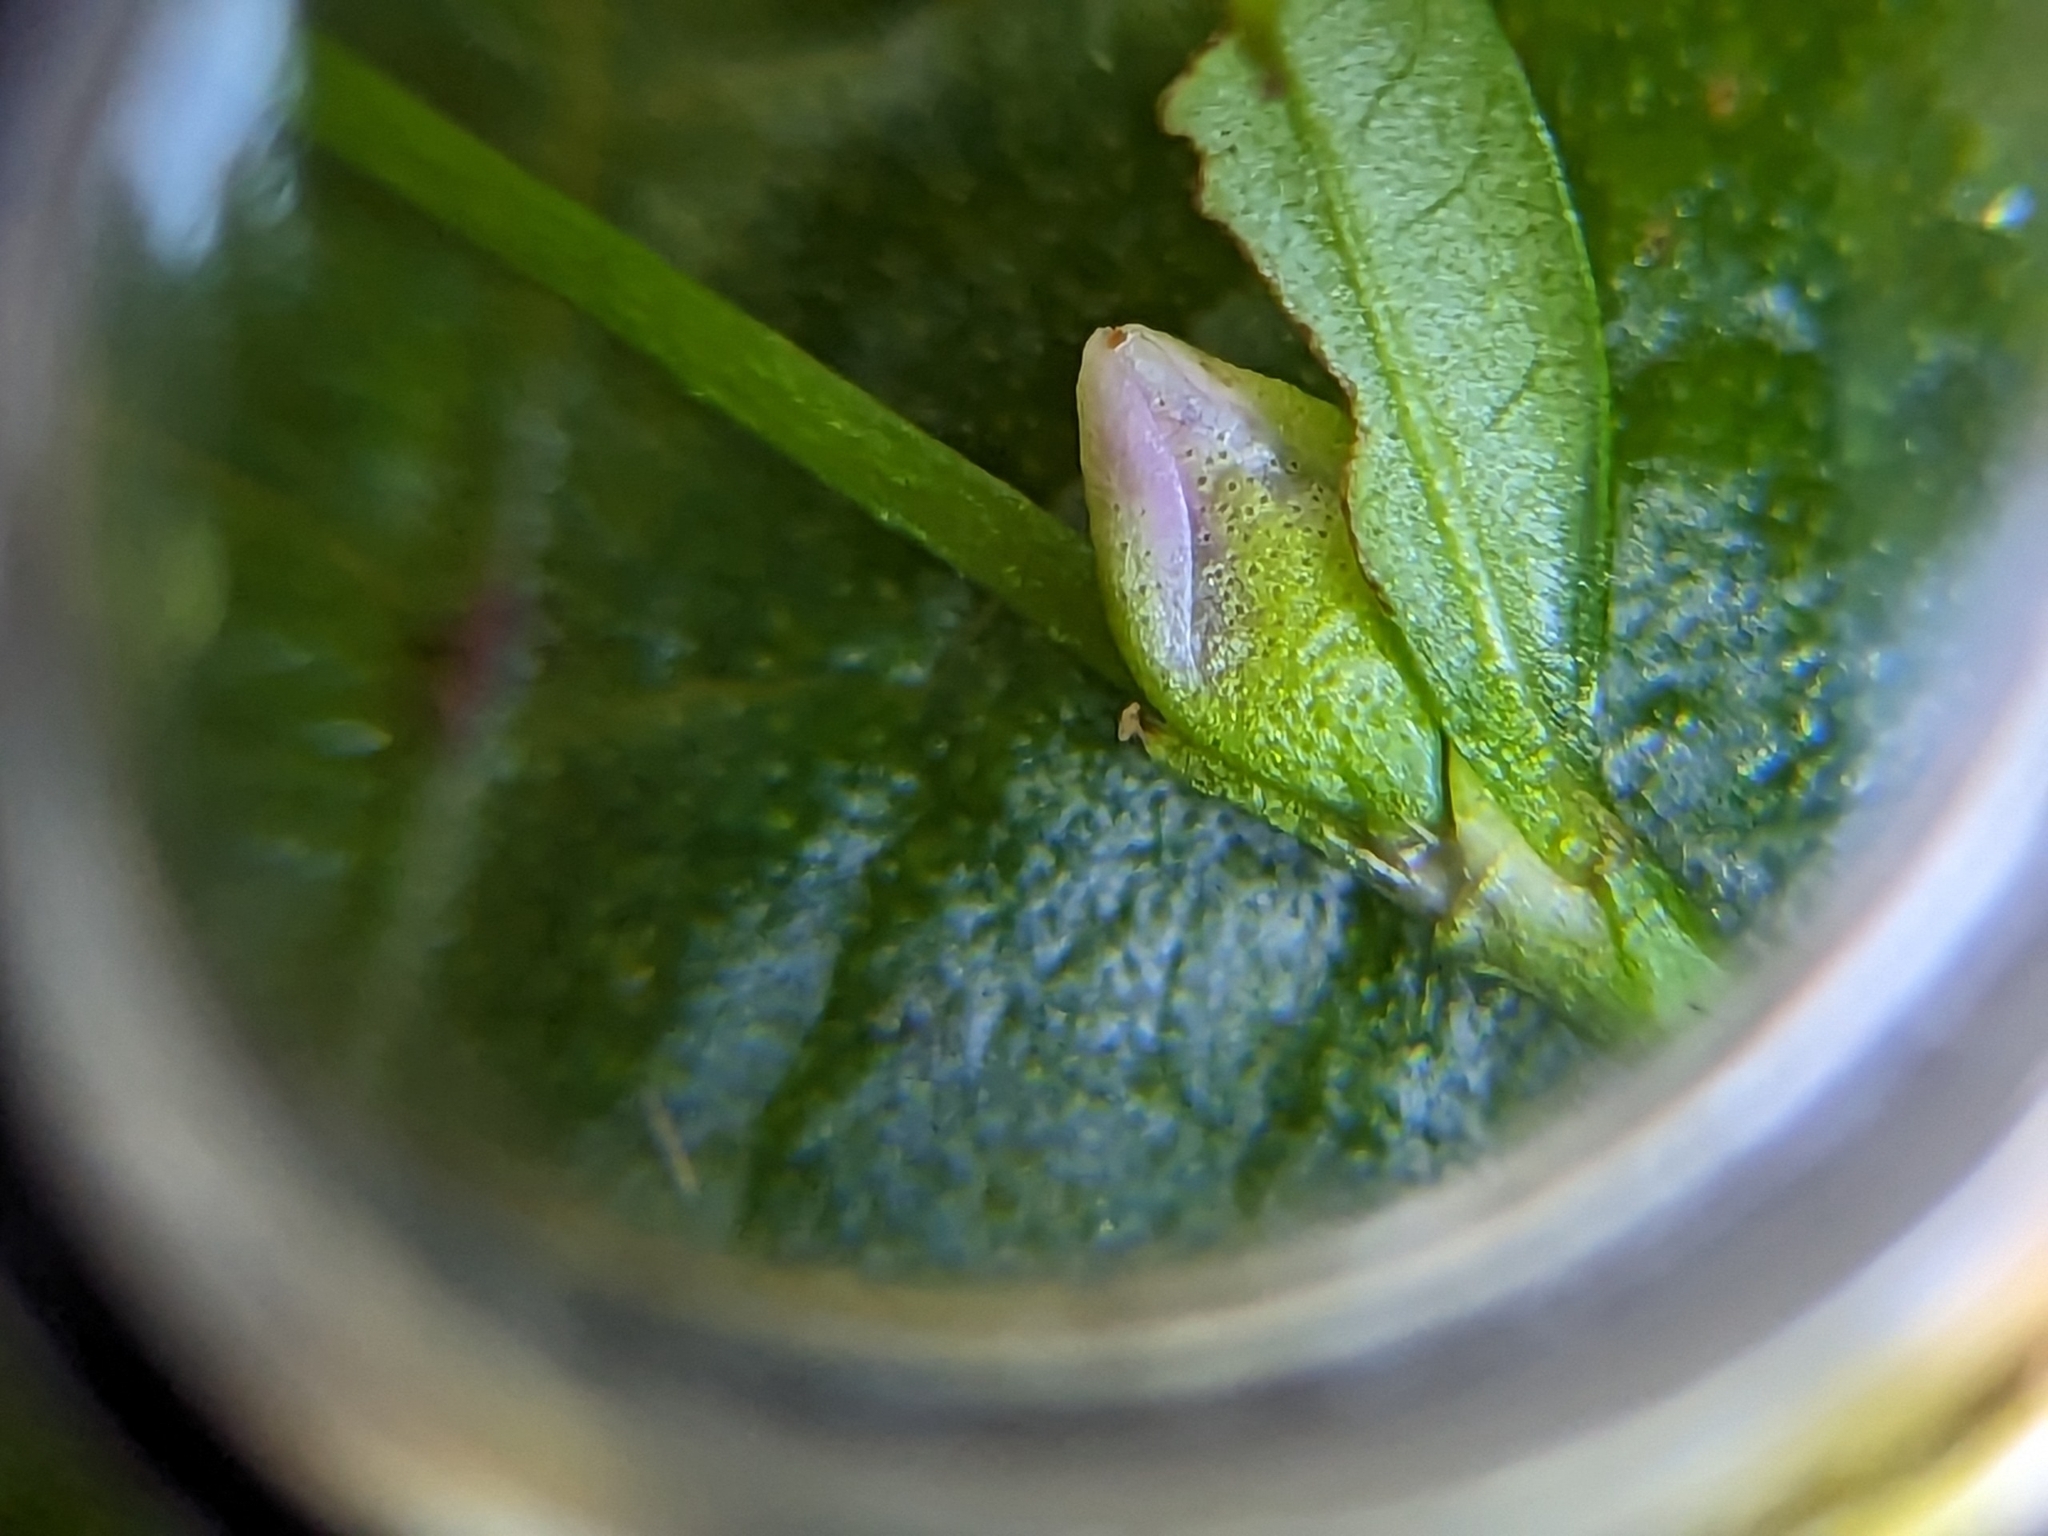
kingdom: Plantae
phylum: Tracheophyta
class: Magnoliopsida
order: Caryophyllales
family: Polygonaceae
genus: Persicaria
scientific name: Persicaria hydropiper
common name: Water-pepper
